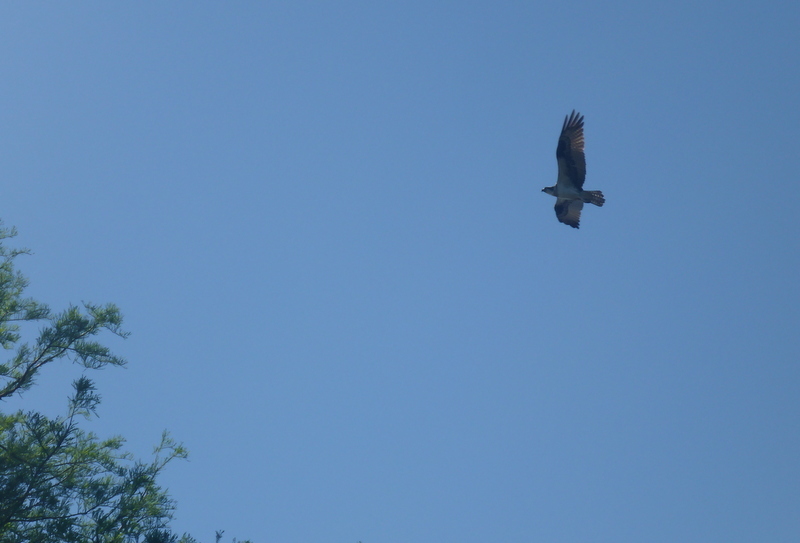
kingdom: Animalia
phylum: Chordata
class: Aves
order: Accipitriformes
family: Pandionidae
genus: Pandion
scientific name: Pandion haliaetus
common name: Osprey
